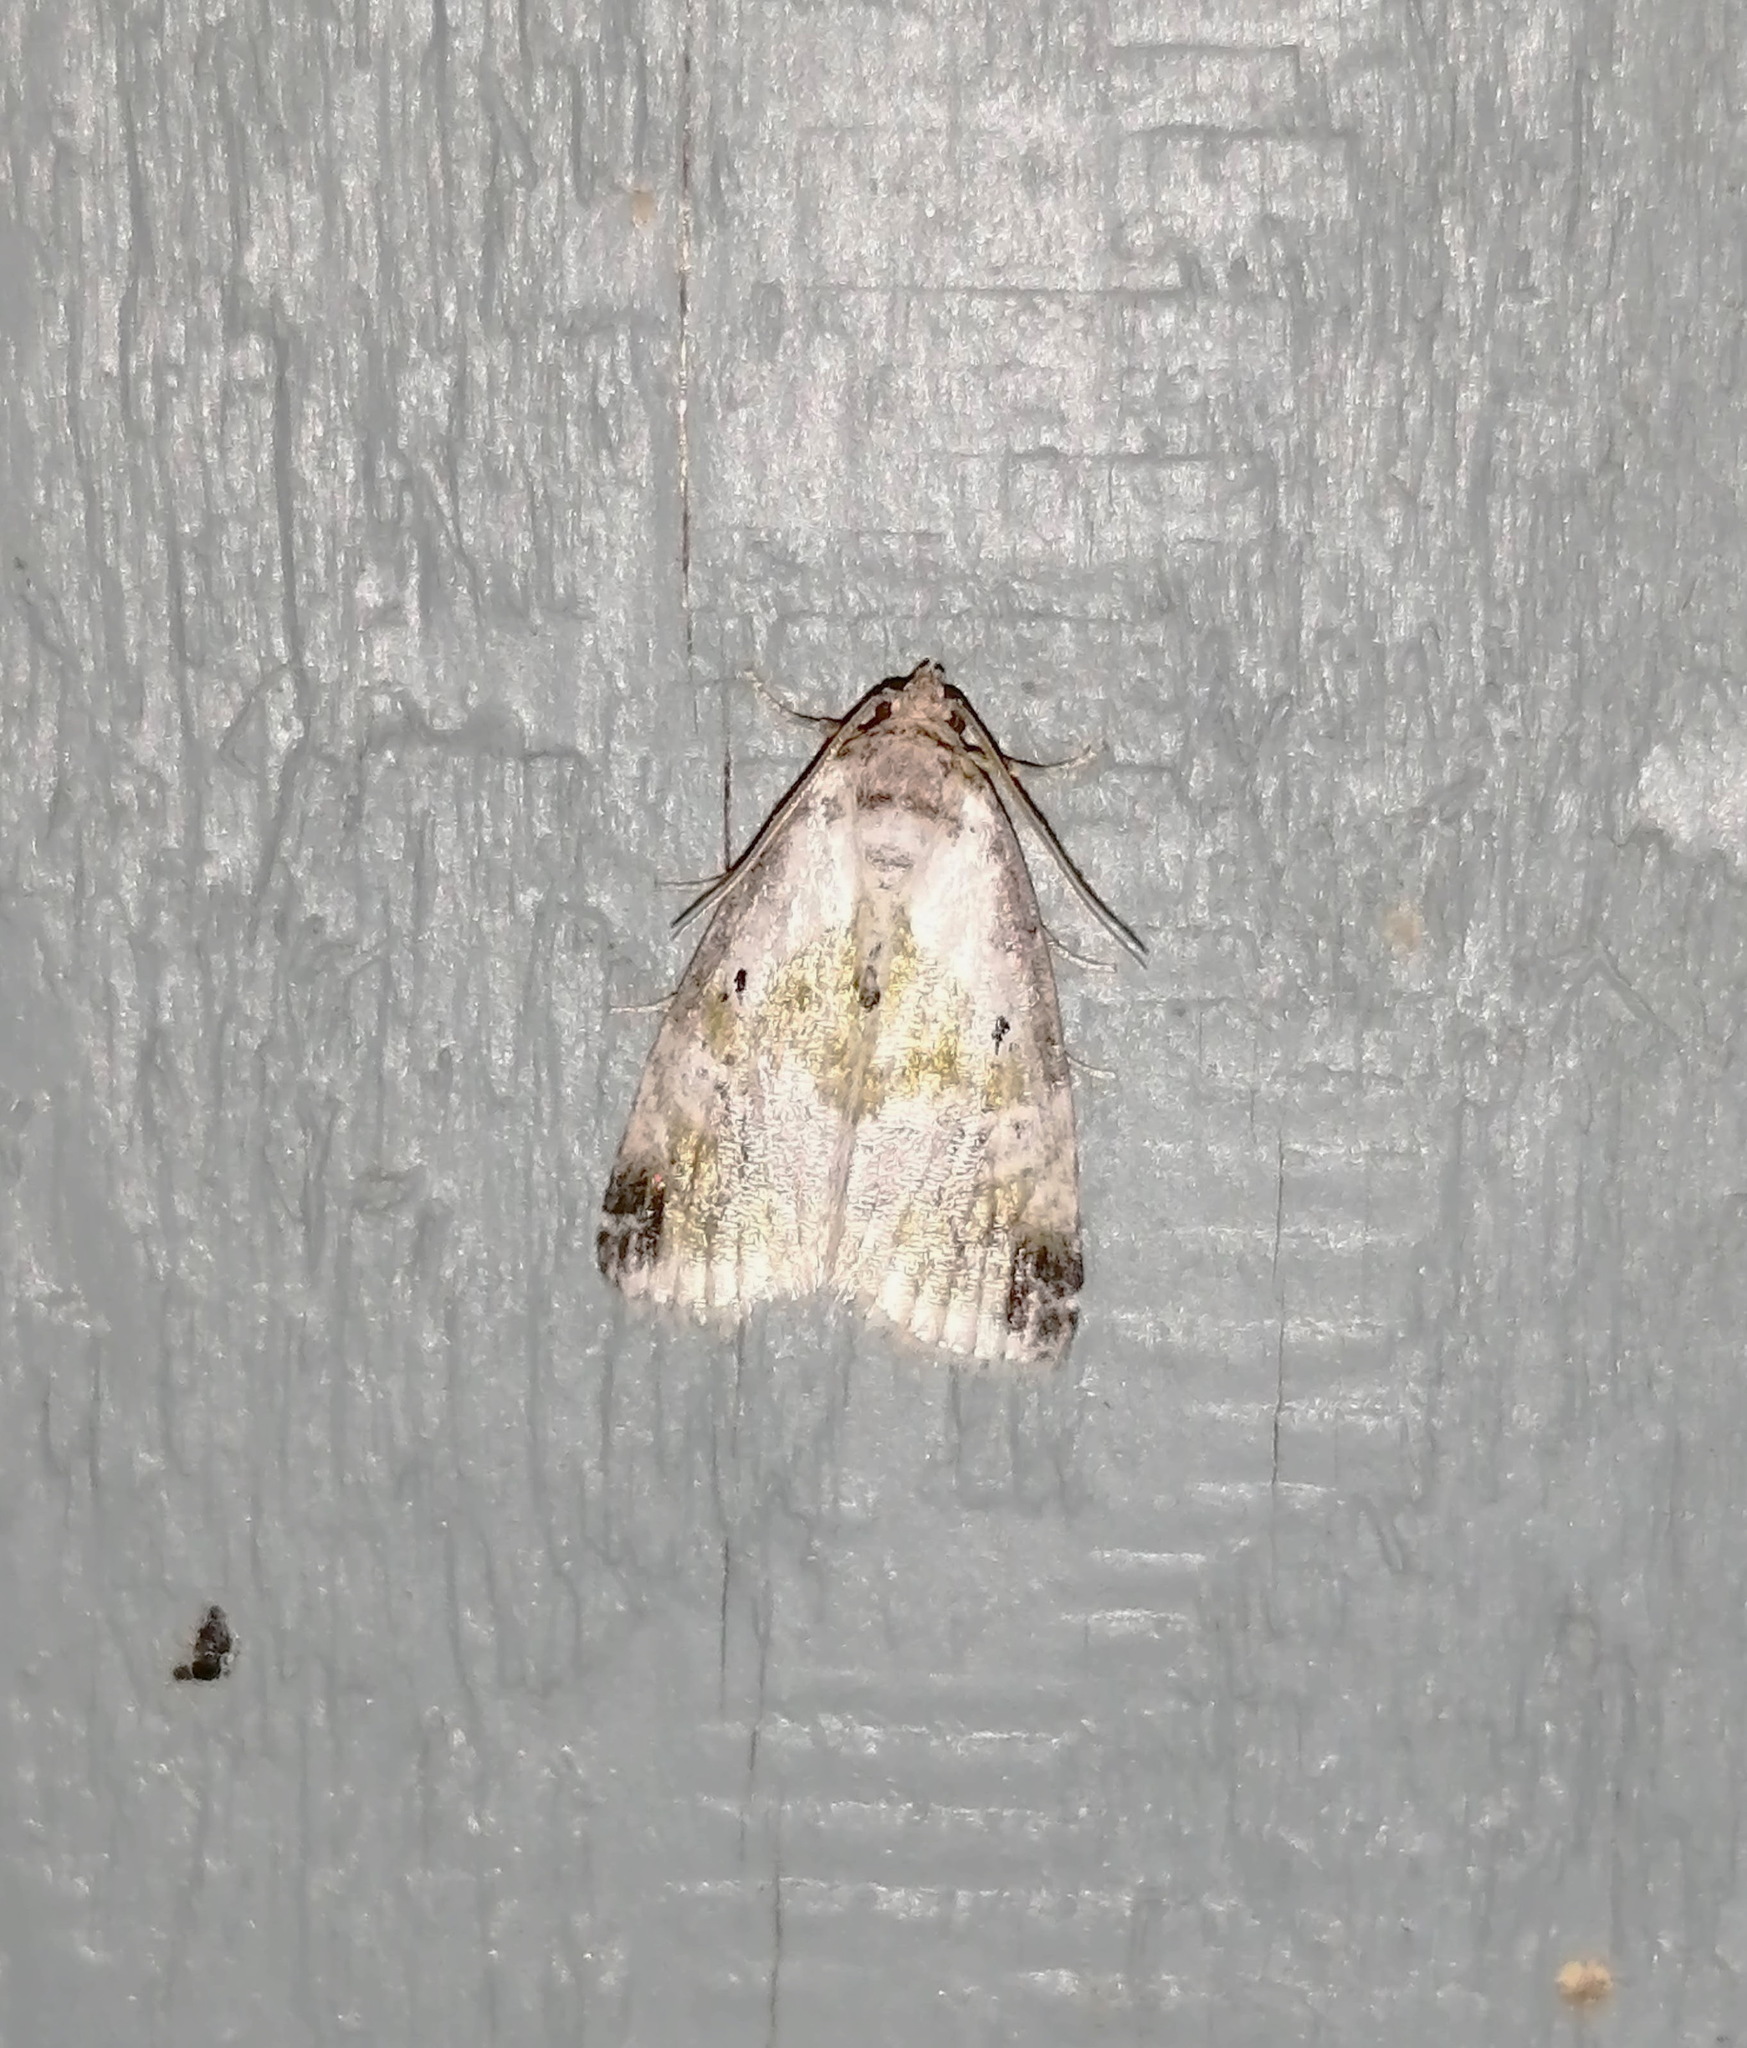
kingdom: Animalia
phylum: Arthropoda
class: Insecta
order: Lepidoptera
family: Noctuidae
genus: Maliattha
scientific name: Maliattha synochitis
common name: Black-dotted glyph
